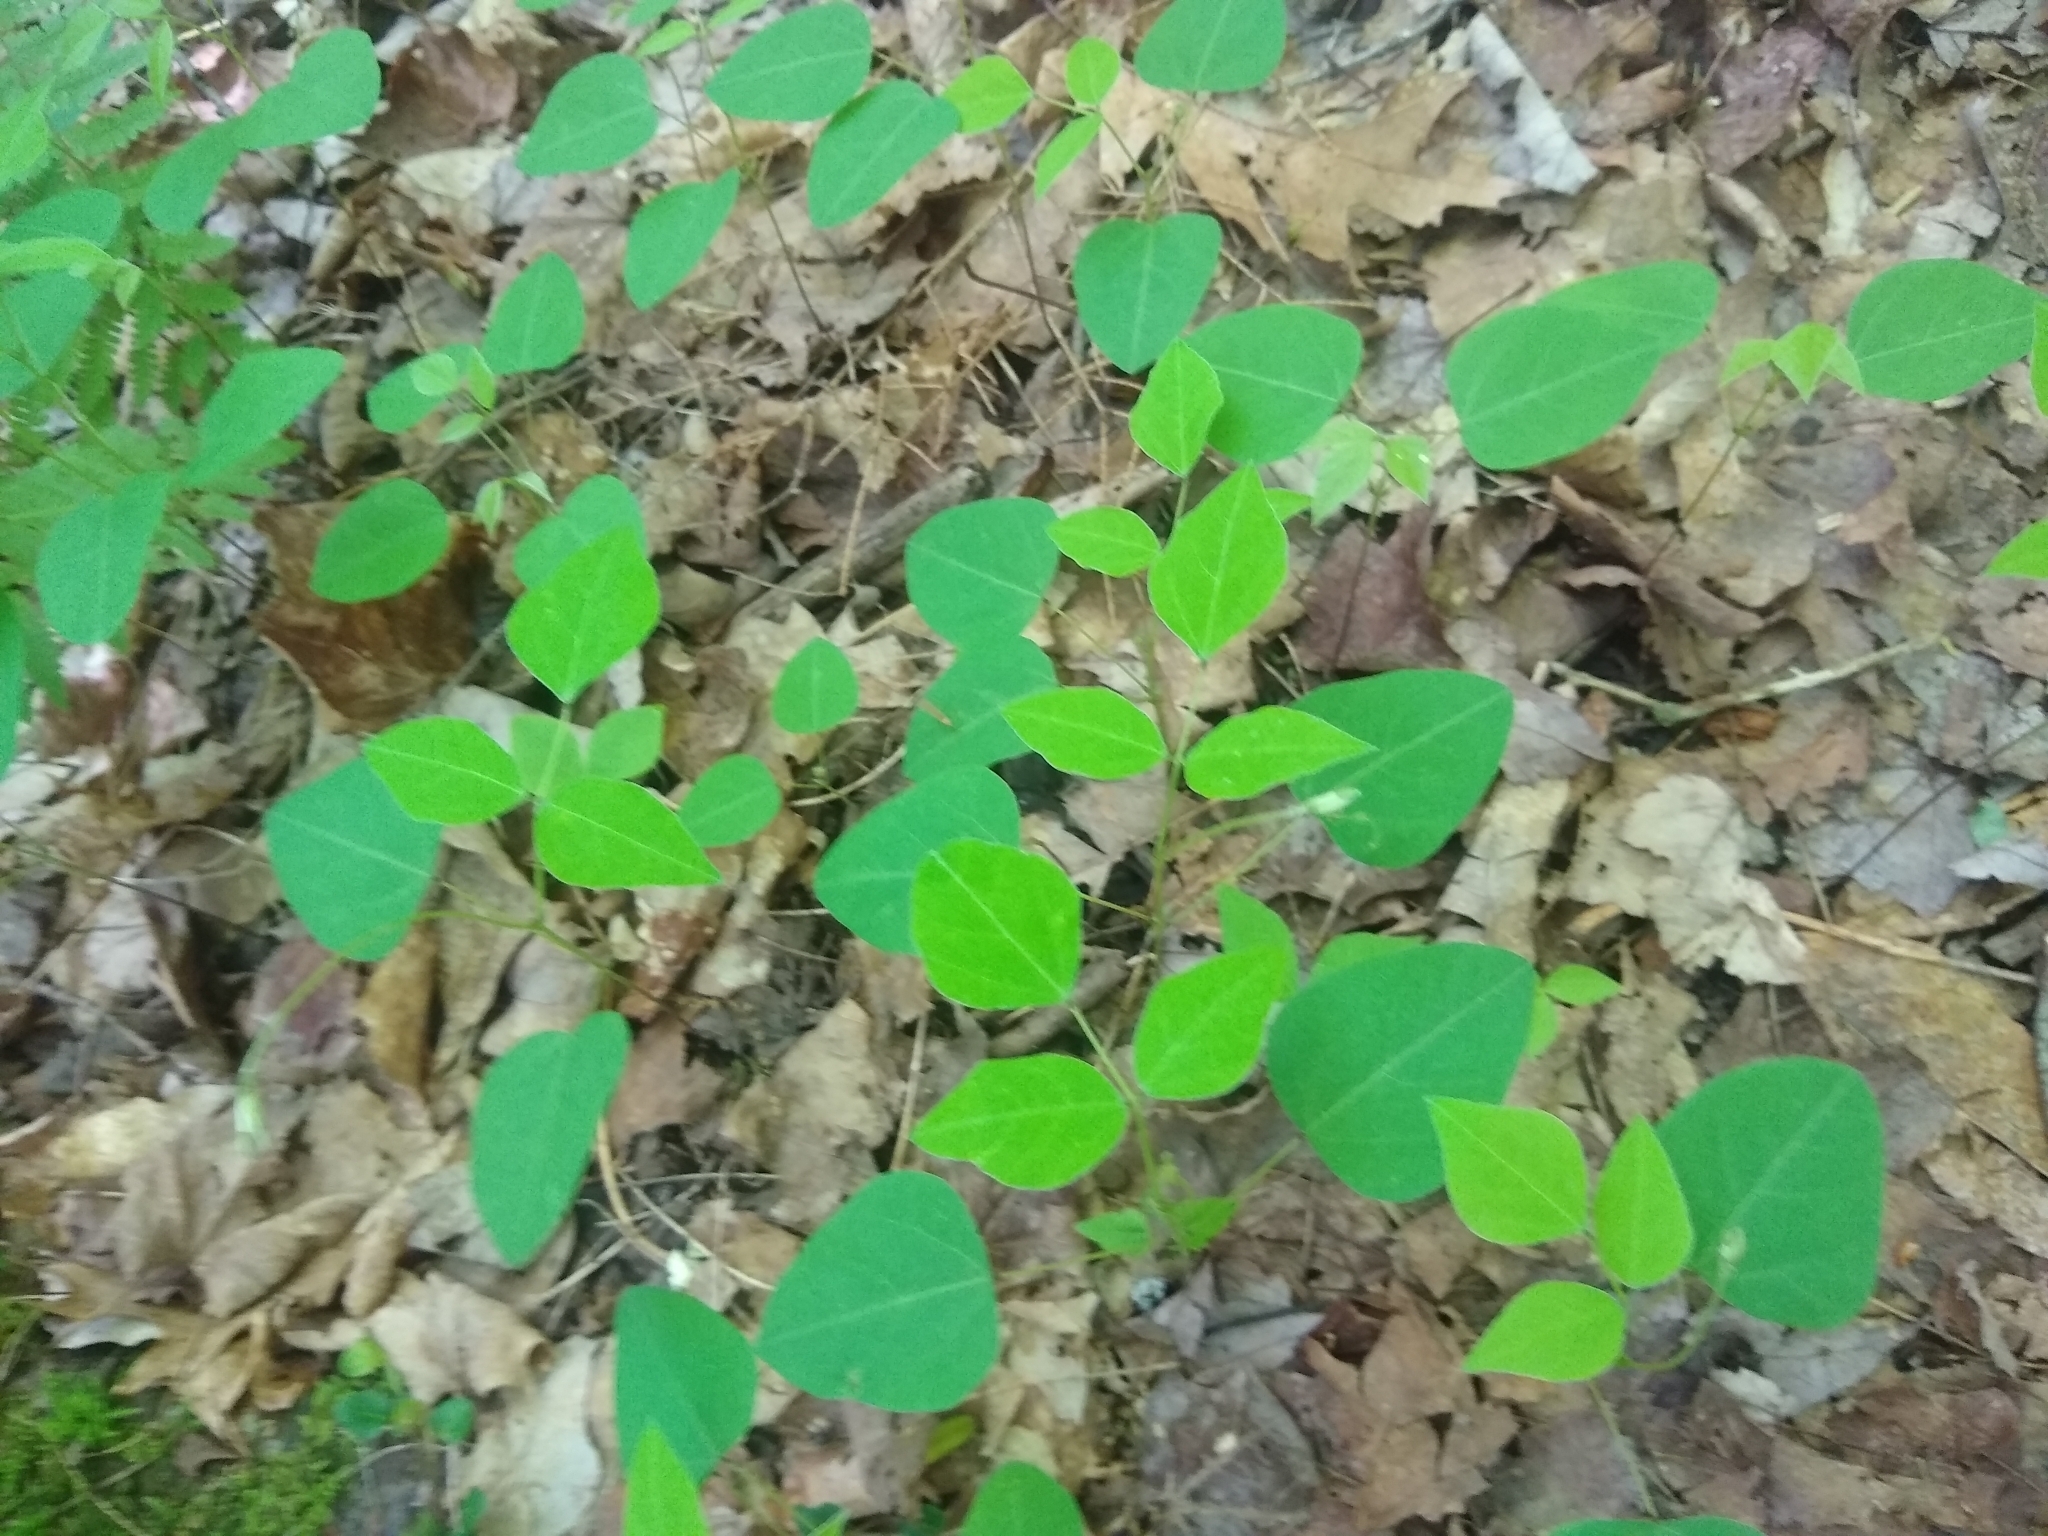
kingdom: Plantae
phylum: Tracheophyta
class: Magnoliopsida
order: Fabales
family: Fabaceae
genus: Amphicarpaea
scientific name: Amphicarpaea bracteata
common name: American hog peanut
